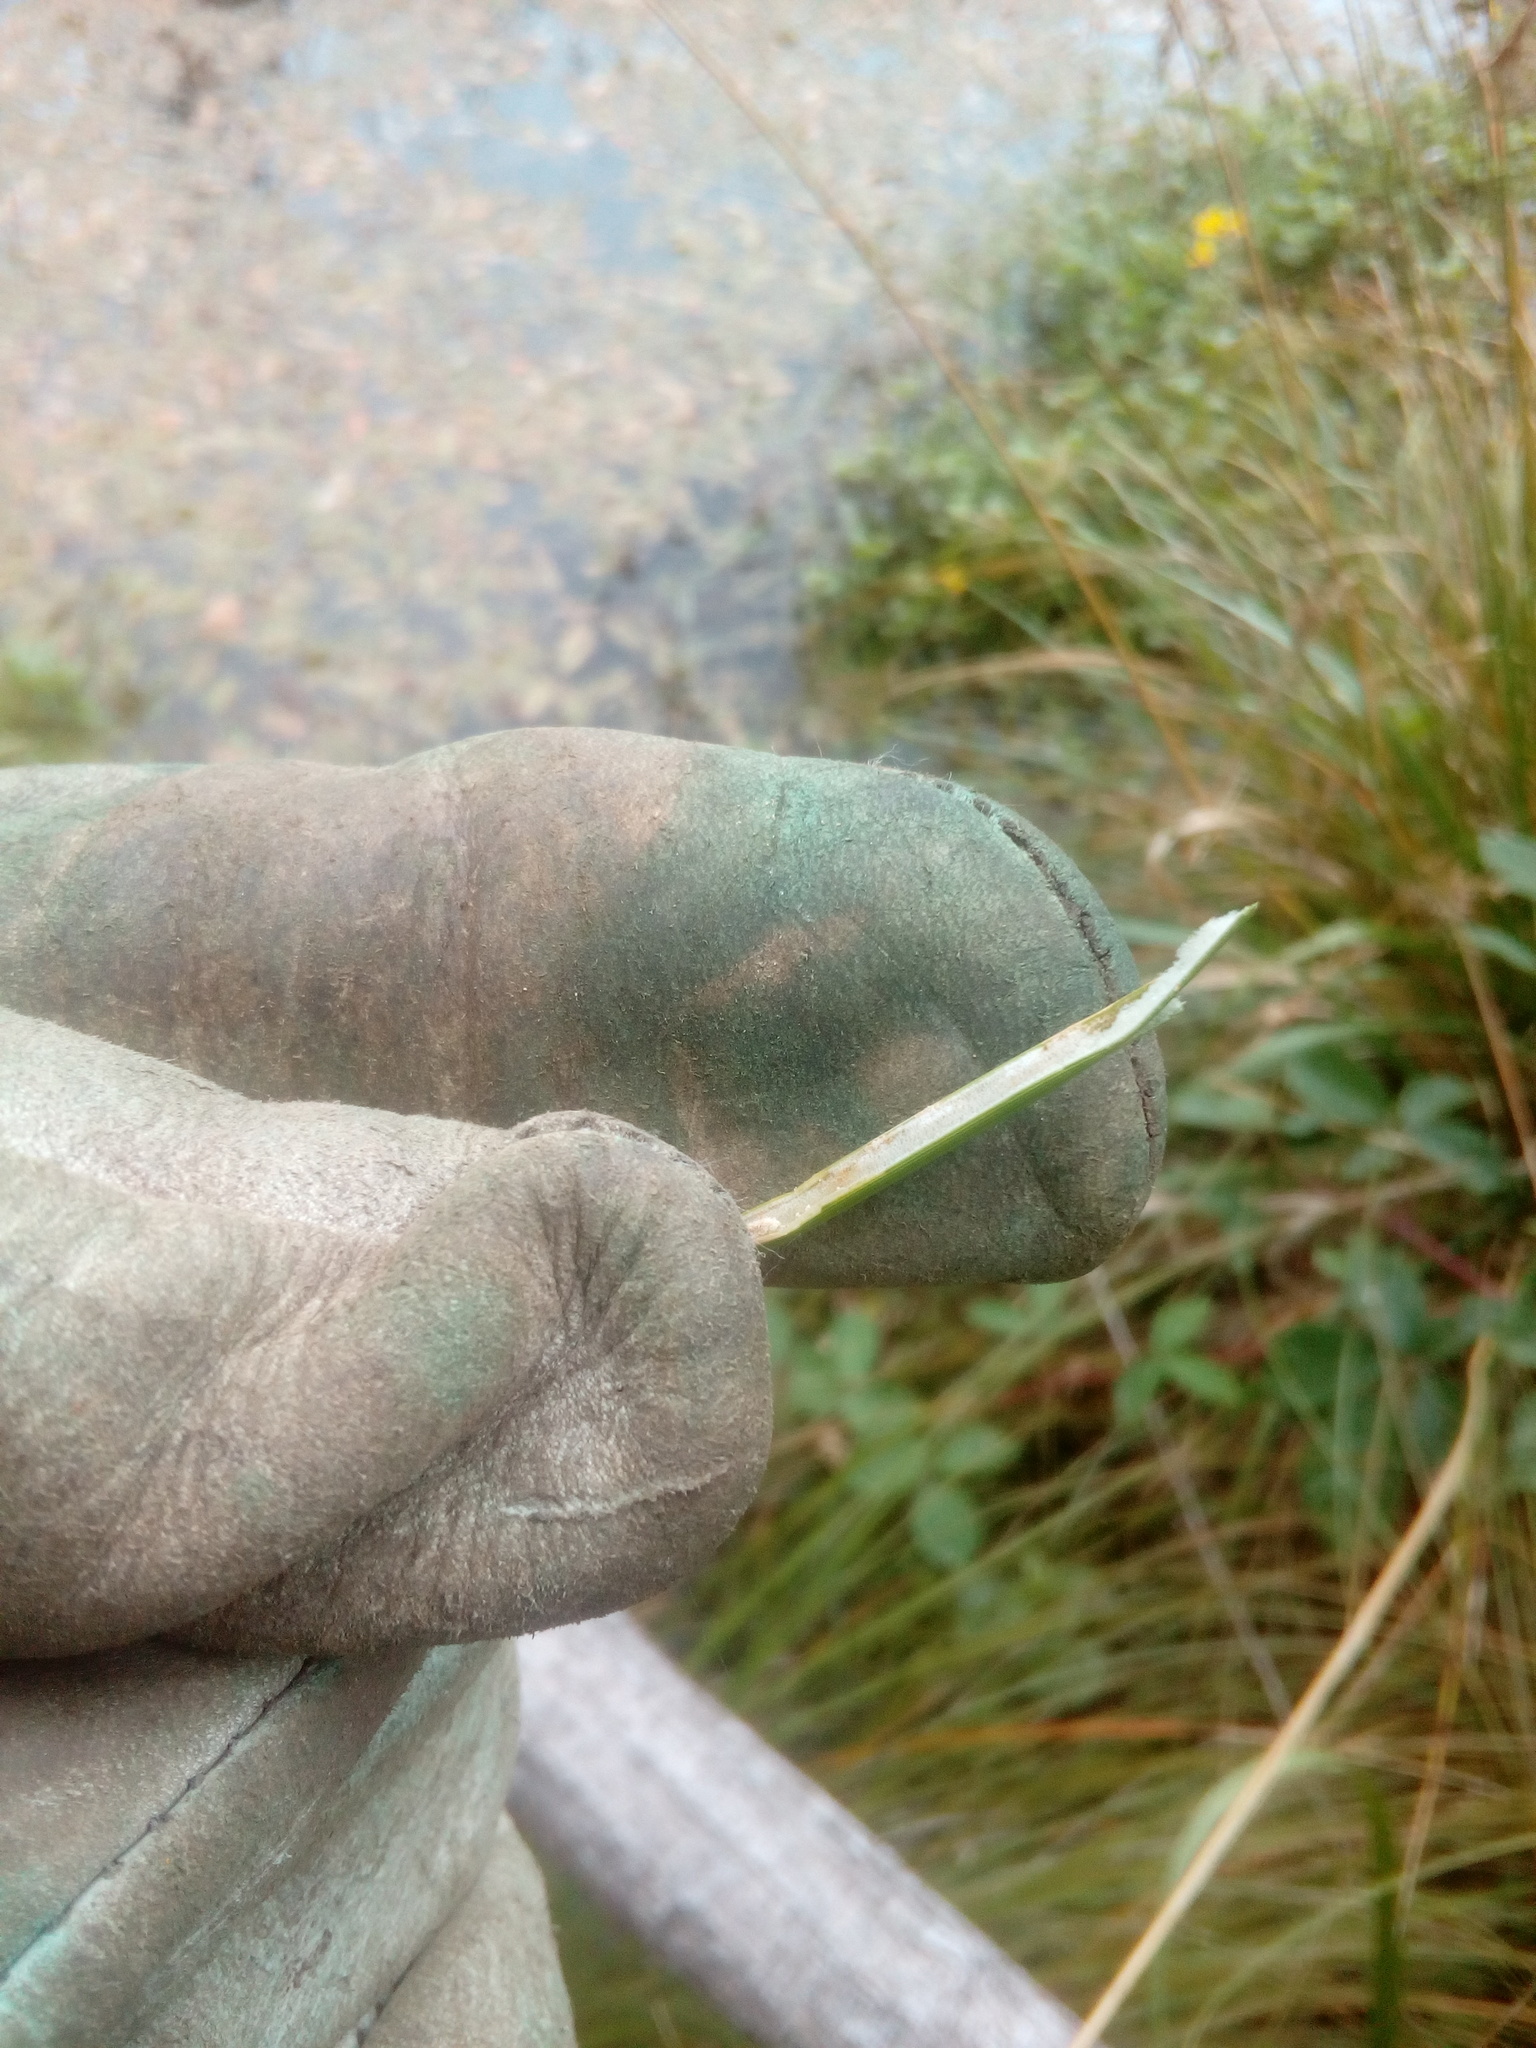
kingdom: Plantae
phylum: Tracheophyta
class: Liliopsida
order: Poales
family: Juncaceae
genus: Juncus
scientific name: Juncus effusus
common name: Soft rush
